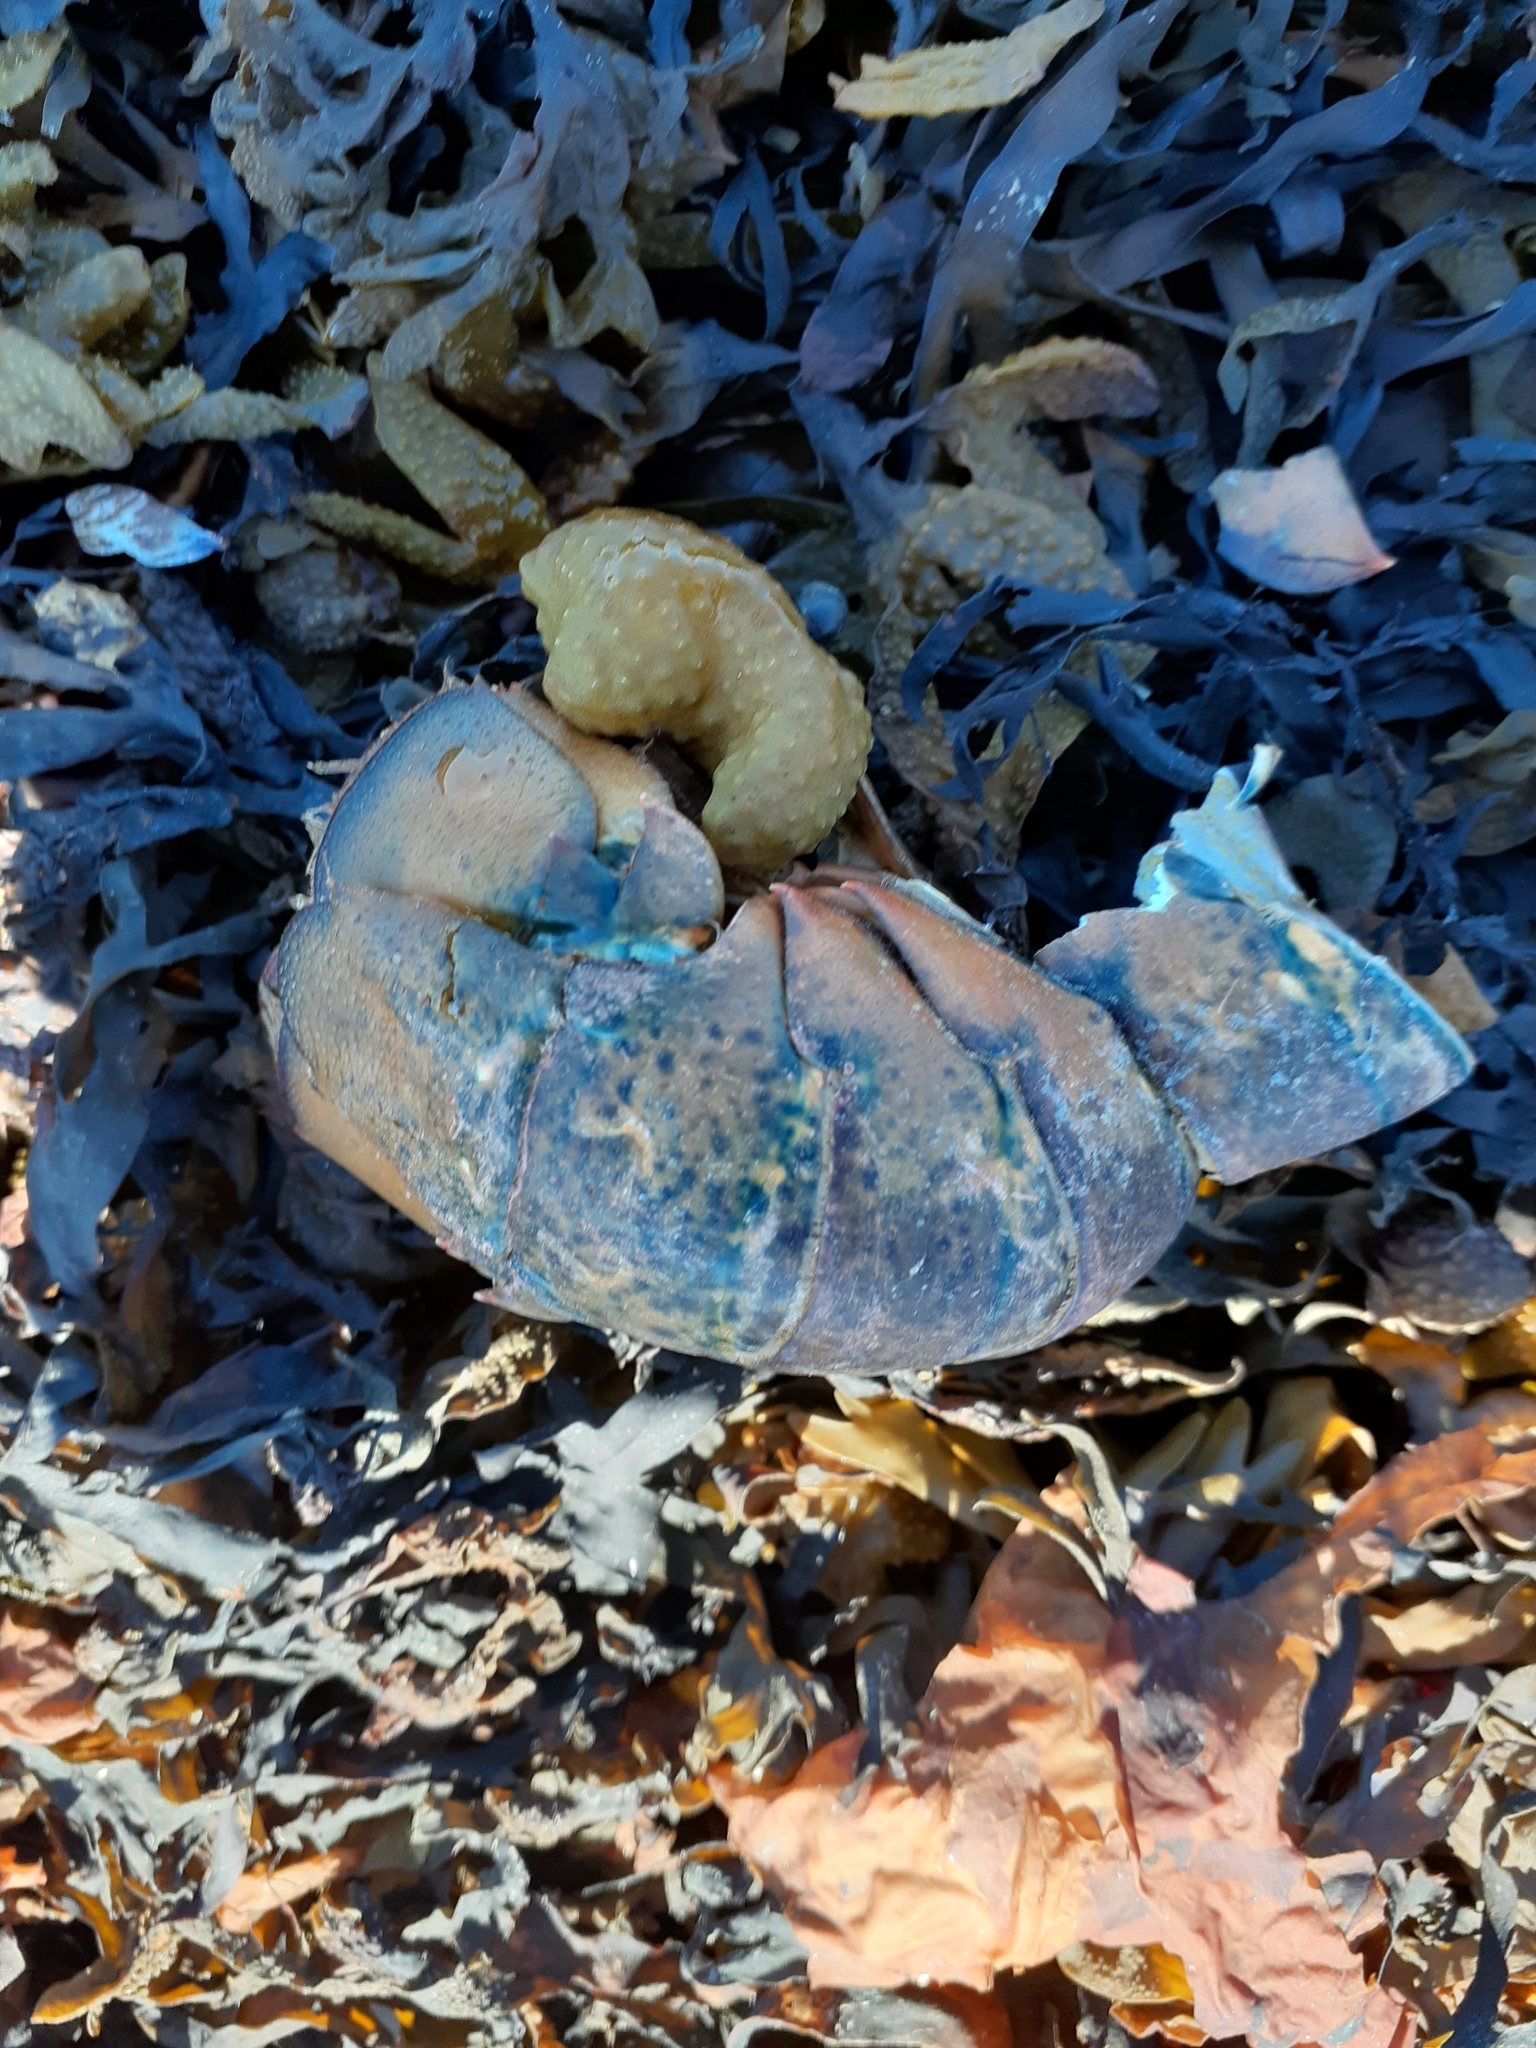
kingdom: Animalia
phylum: Arthropoda
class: Malacostraca
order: Decapoda
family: Nephropidae
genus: Homarus
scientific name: Homarus americanus
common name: American lobster
